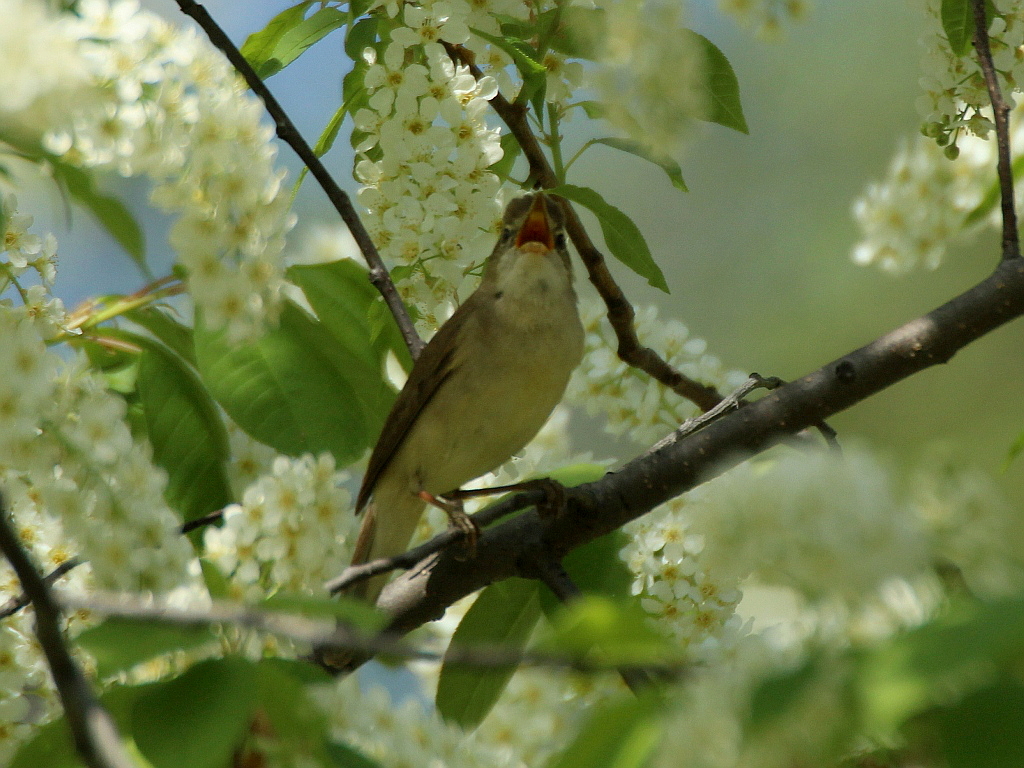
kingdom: Animalia
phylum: Chordata
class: Aves
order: Passeriformes
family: Acrocephalidae
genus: Acrocephalus
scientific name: Acrocephalus dumetorum
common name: Blyth's reed warbler
